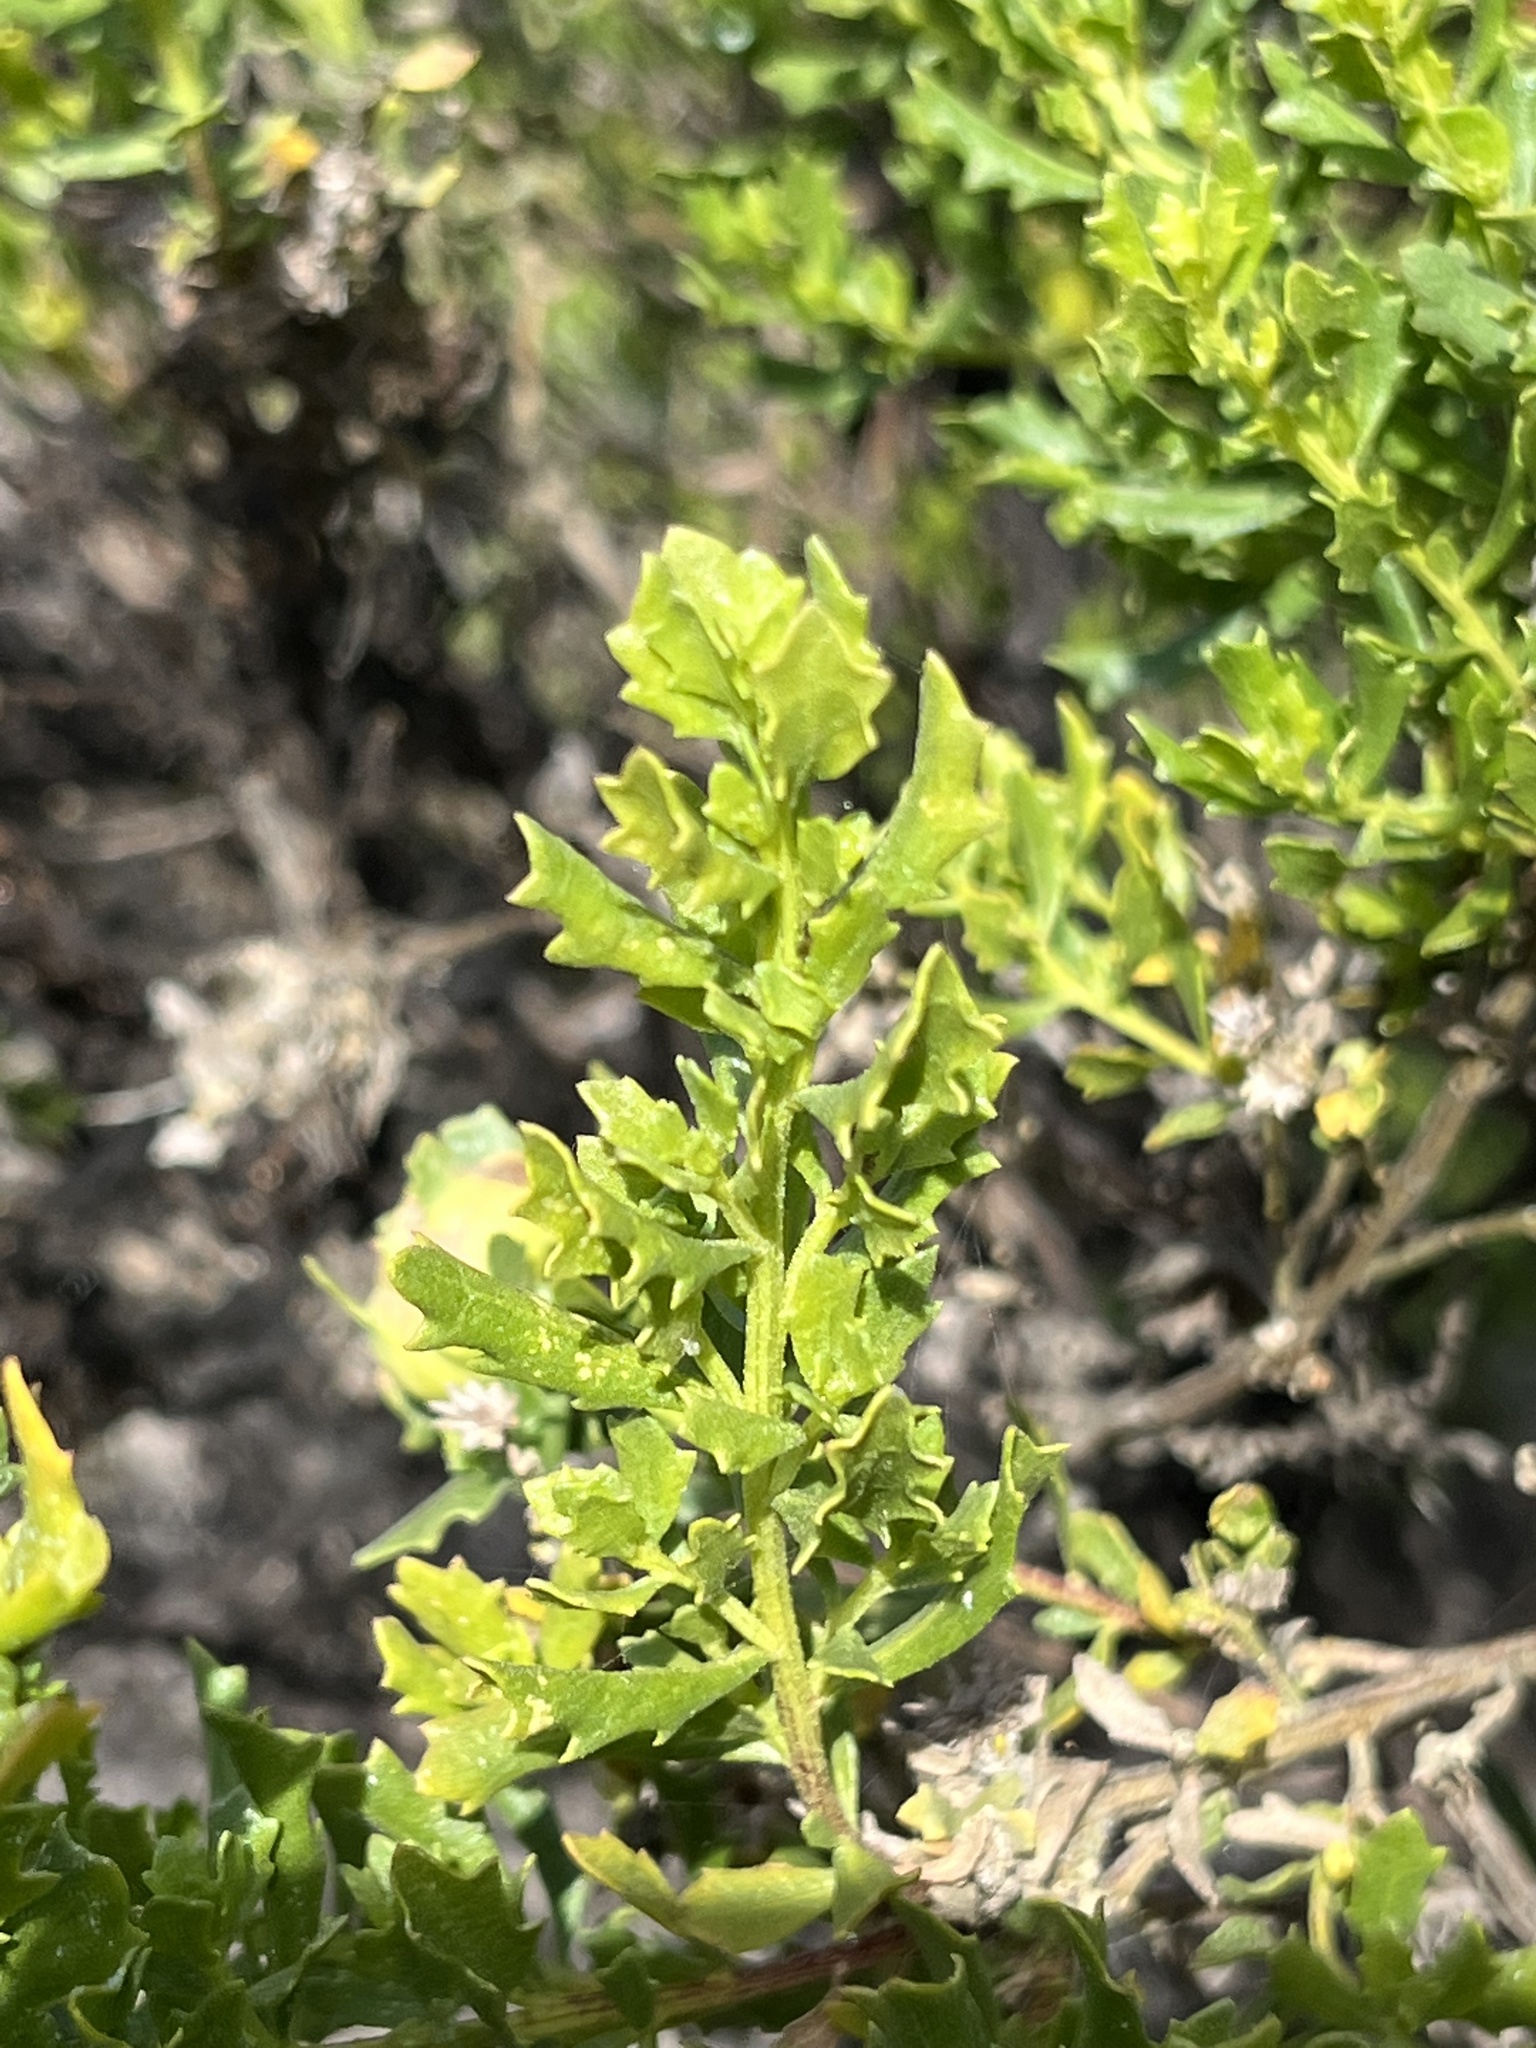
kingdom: Plantae
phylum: Tracheophyta
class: Magnoliopsida
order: Asterales
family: Asteraceae
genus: Baccharis
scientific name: Baccharis pilularis
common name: Coyotebrush
